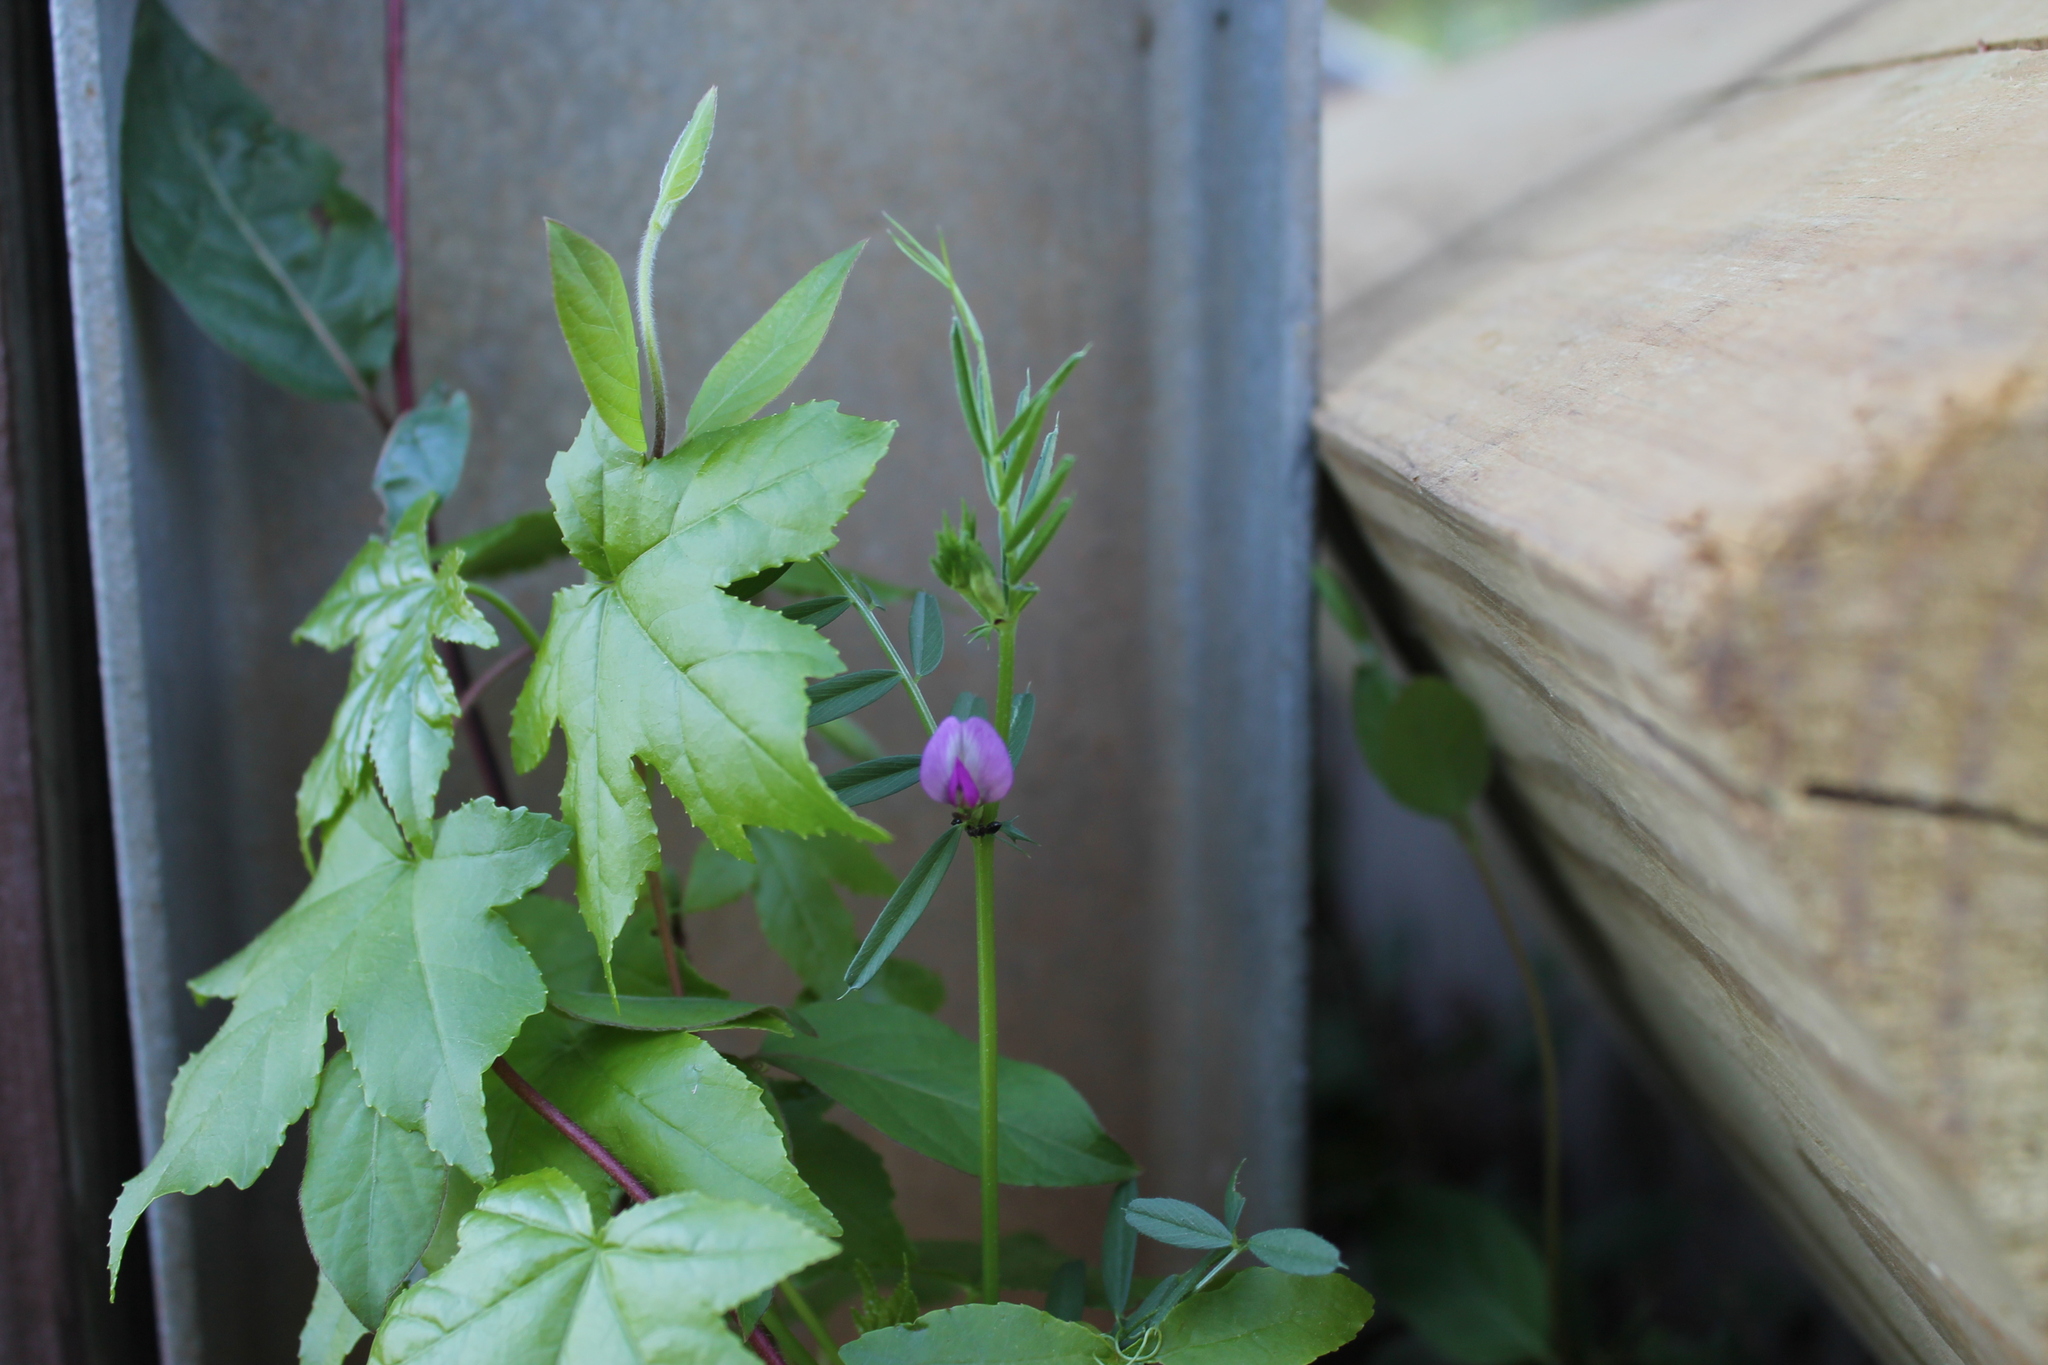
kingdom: Plantae
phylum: Tracheophyta
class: Magnoliopsida
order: Fabales
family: Fabaceae
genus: Vicia
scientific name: Vicia sativa
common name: Garden vetch
